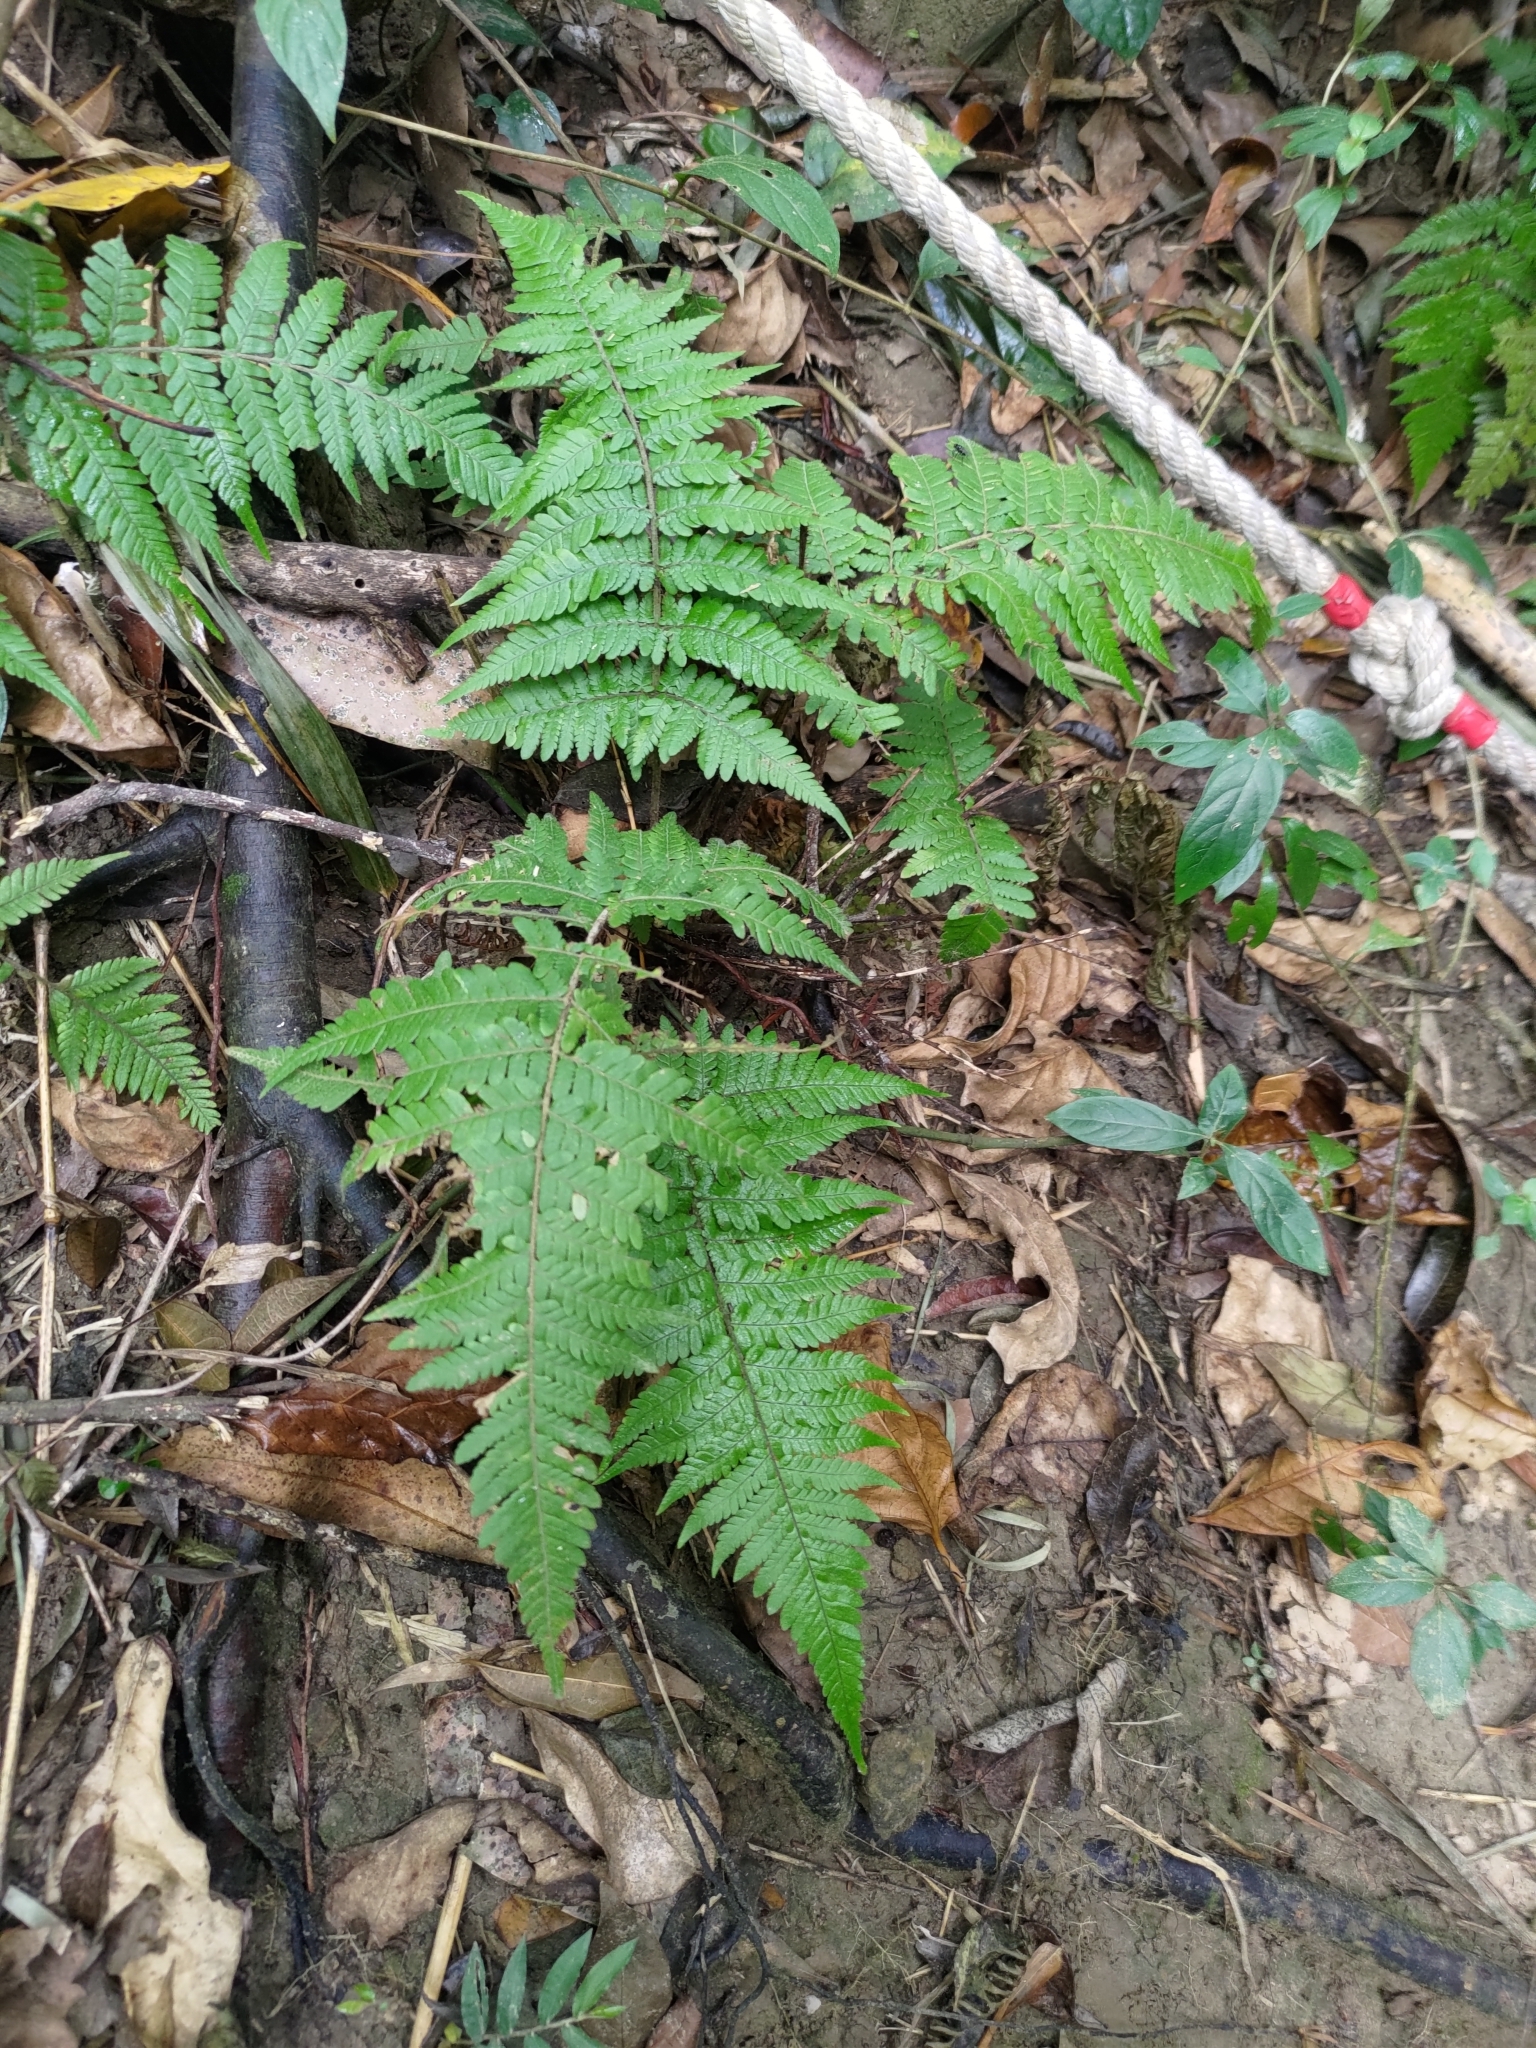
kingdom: Plantae
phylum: Tracheophyta
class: Polypodiopsida
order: Polypodiales
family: Dryopteridaceae
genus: Ctenitis
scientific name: Ctenitis eatonii
